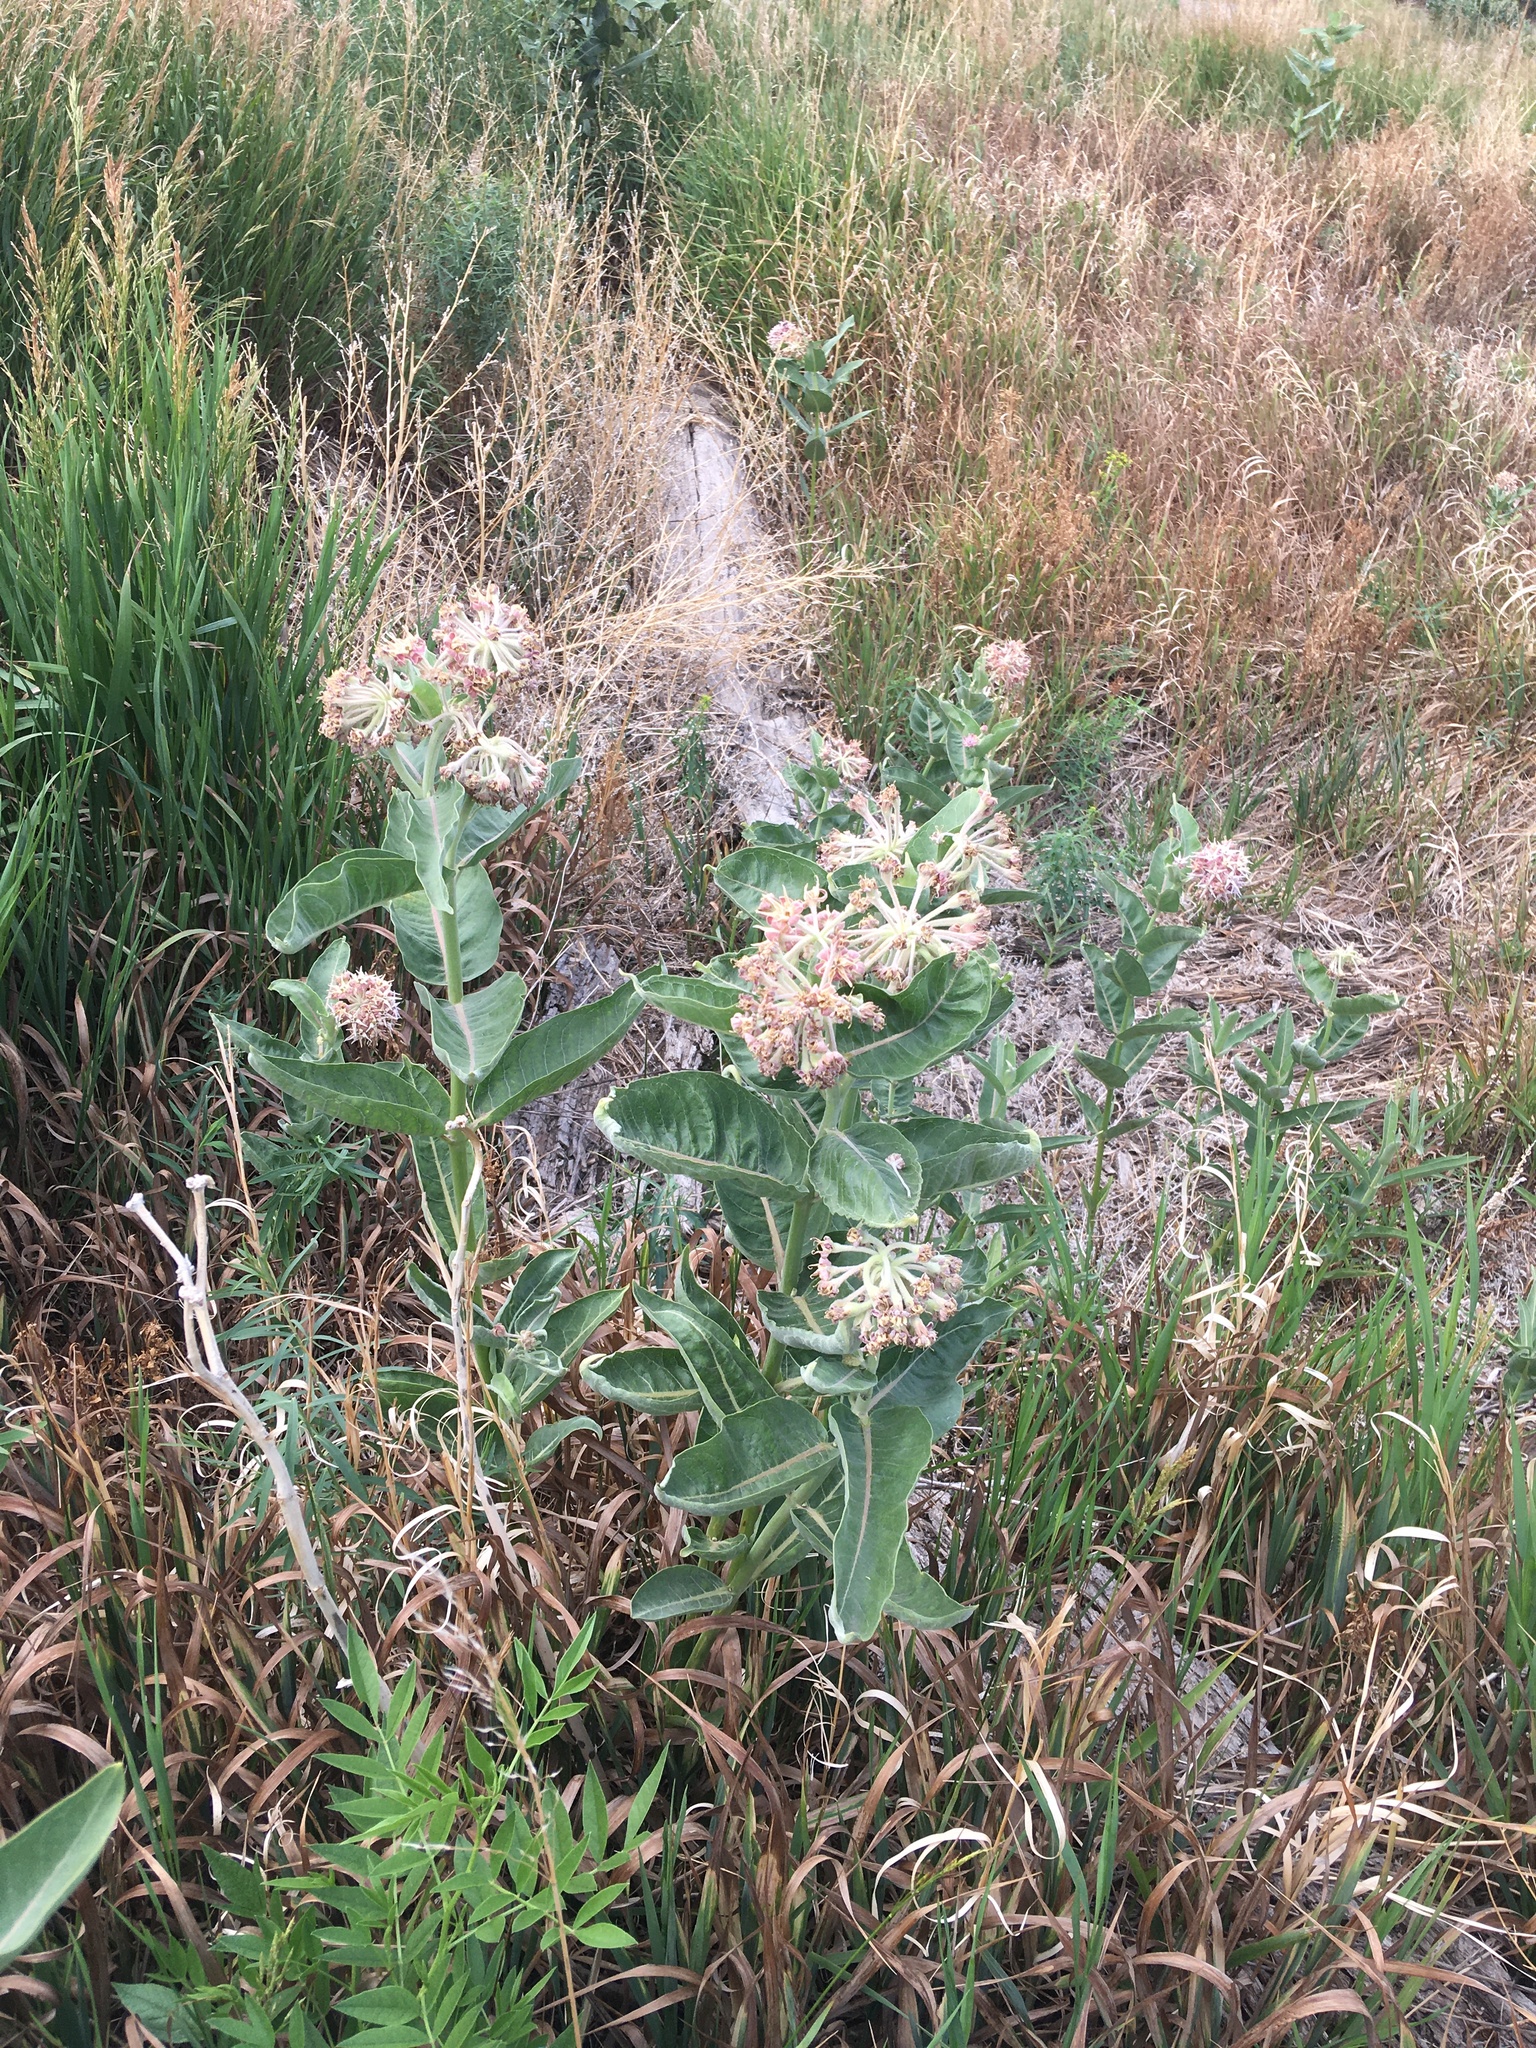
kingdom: Plantae
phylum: Tracheophyta
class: Magnoliopsida
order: Gentianales
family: Apocynaceae
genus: Asclepias
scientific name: Asclepias speciosa
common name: Showy milkweed
